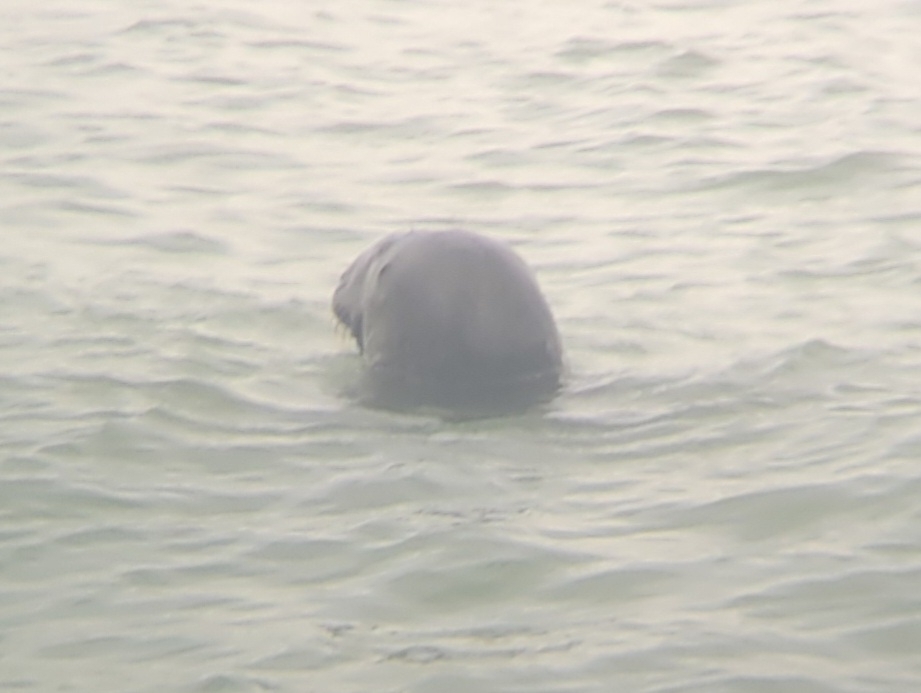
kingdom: Animalia
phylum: Chordata
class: Mammalia
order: Carnivora
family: Phocidae
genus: Halichoerus
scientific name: Halichoerus grypus
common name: Grey seal
